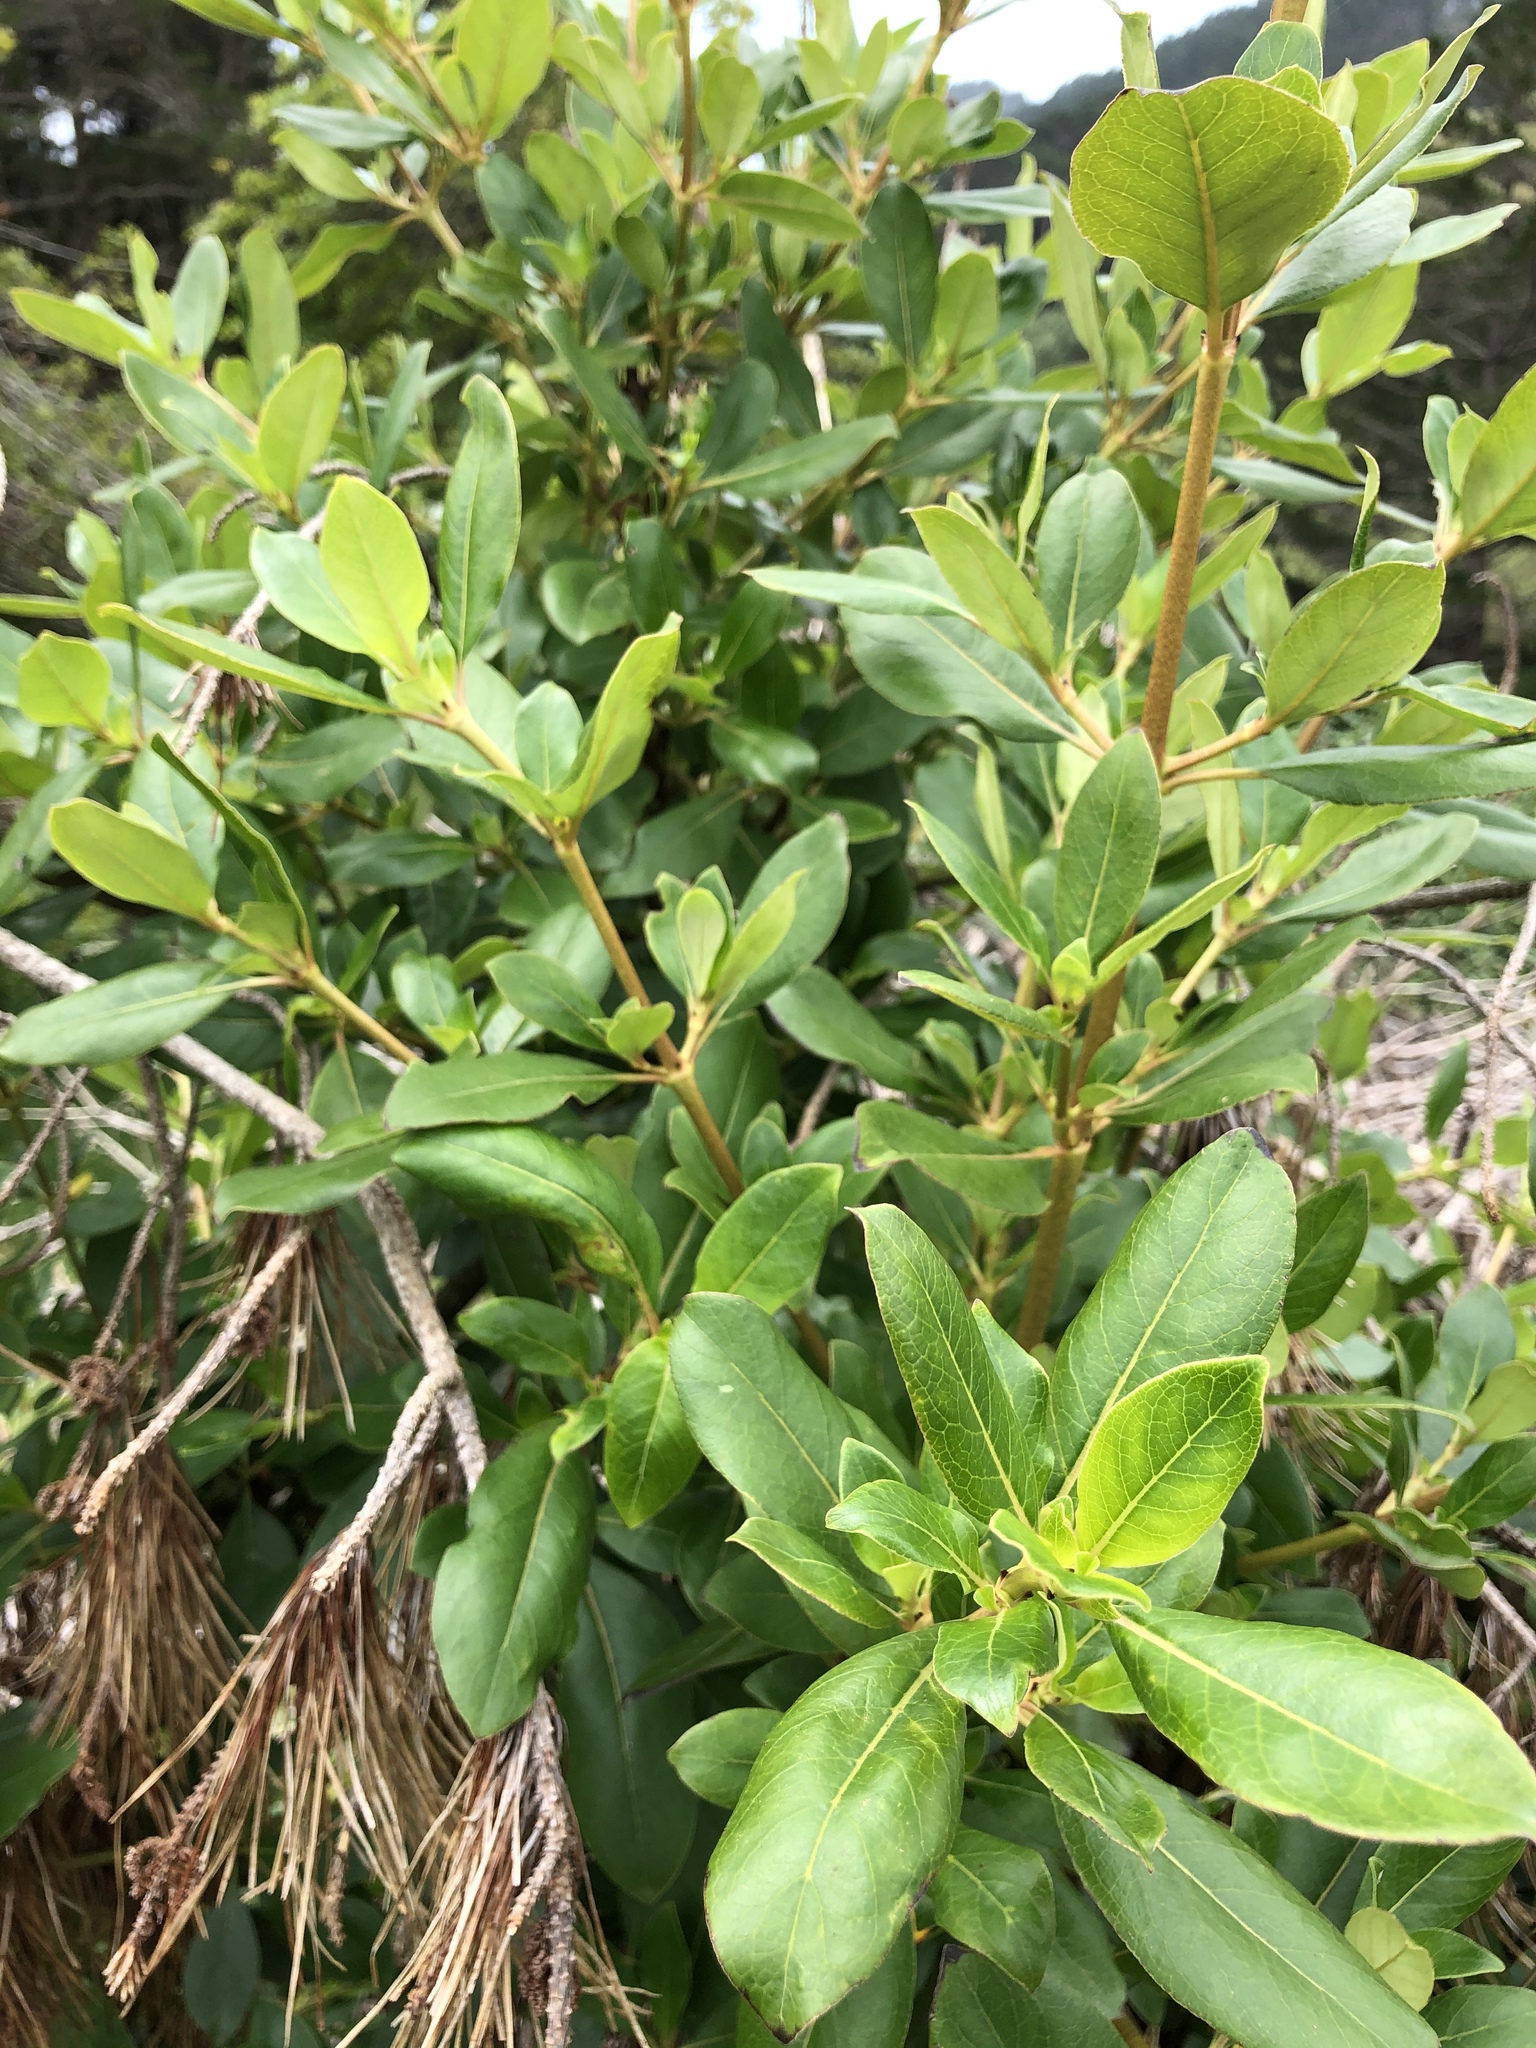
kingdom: Plantae
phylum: Tracheophyta
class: Magnoliopsida
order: Gentianales
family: Rubiaceae
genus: Coprosma
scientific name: Coprosma robusta
